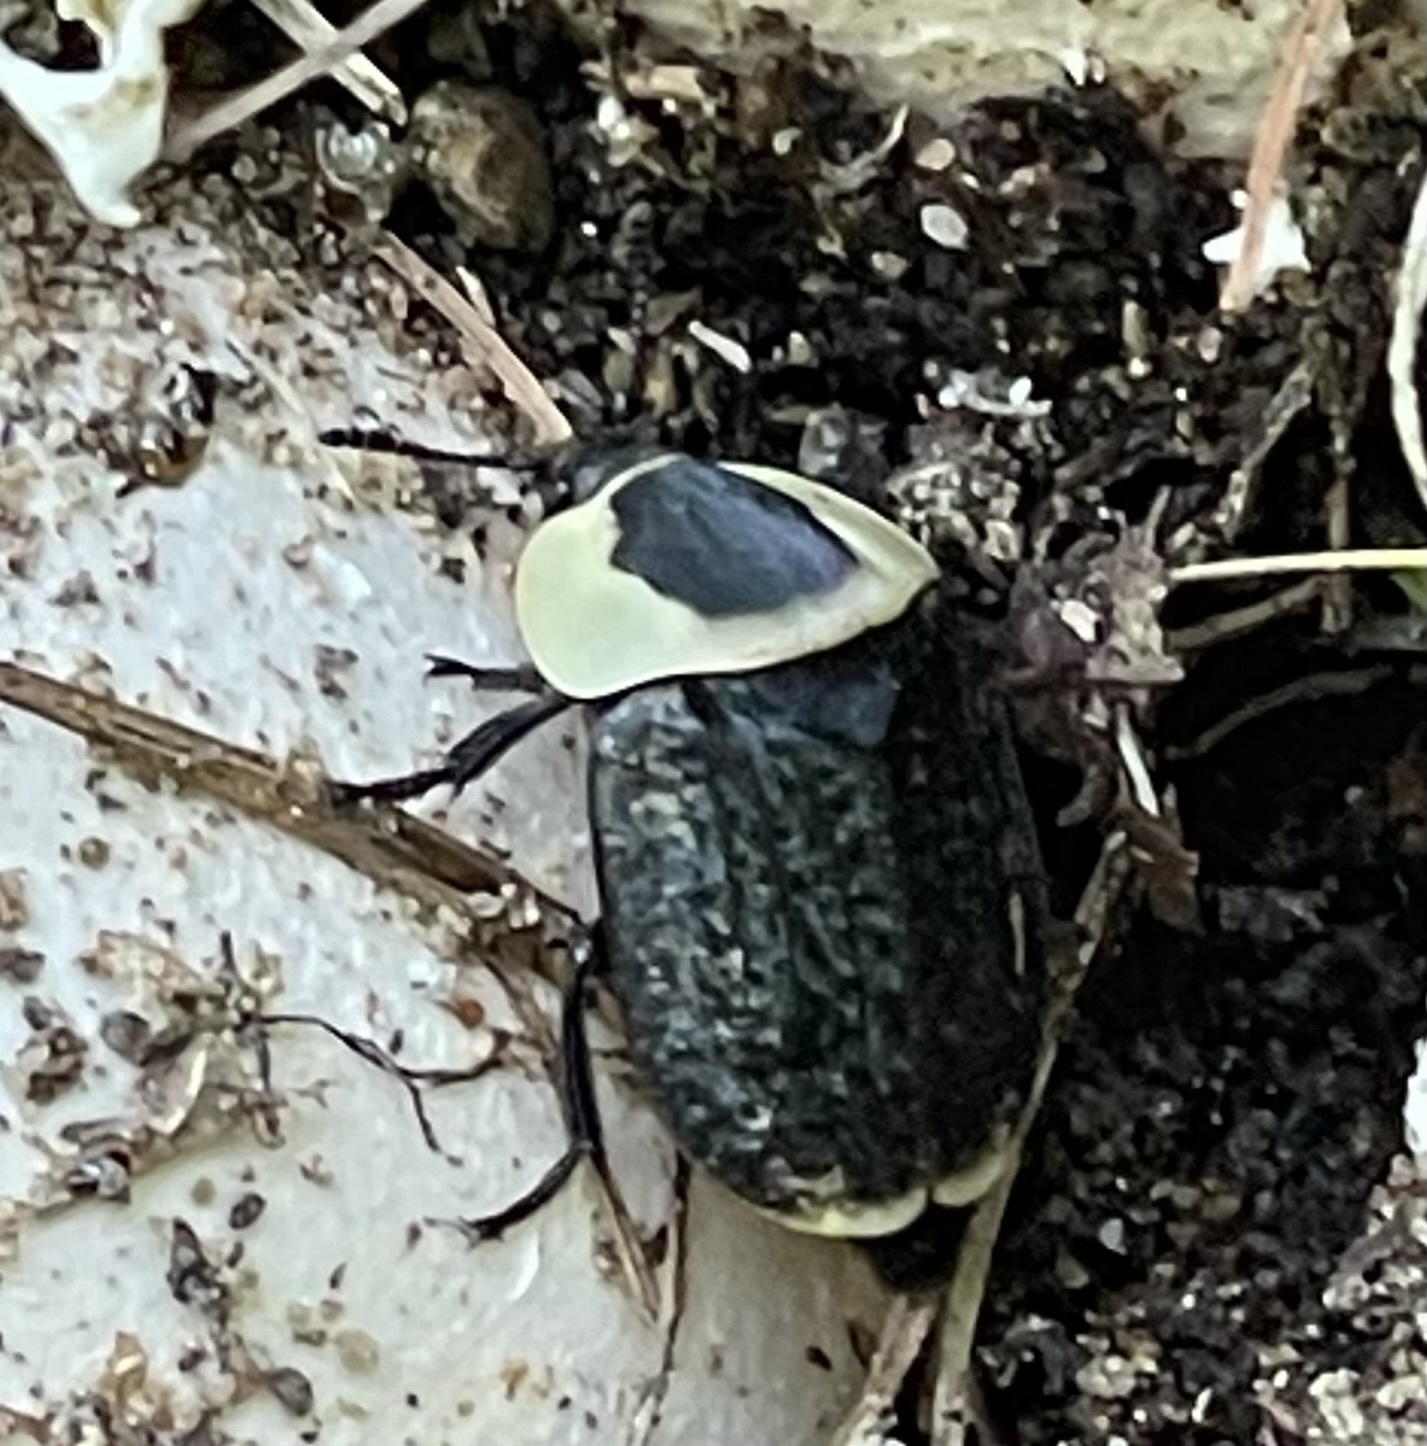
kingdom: Animalia
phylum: Arthropoda
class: Insecta
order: Coleoptera
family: Staphylinidae
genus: Necrophila
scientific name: Necrophila americana
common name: American carrion beetle
